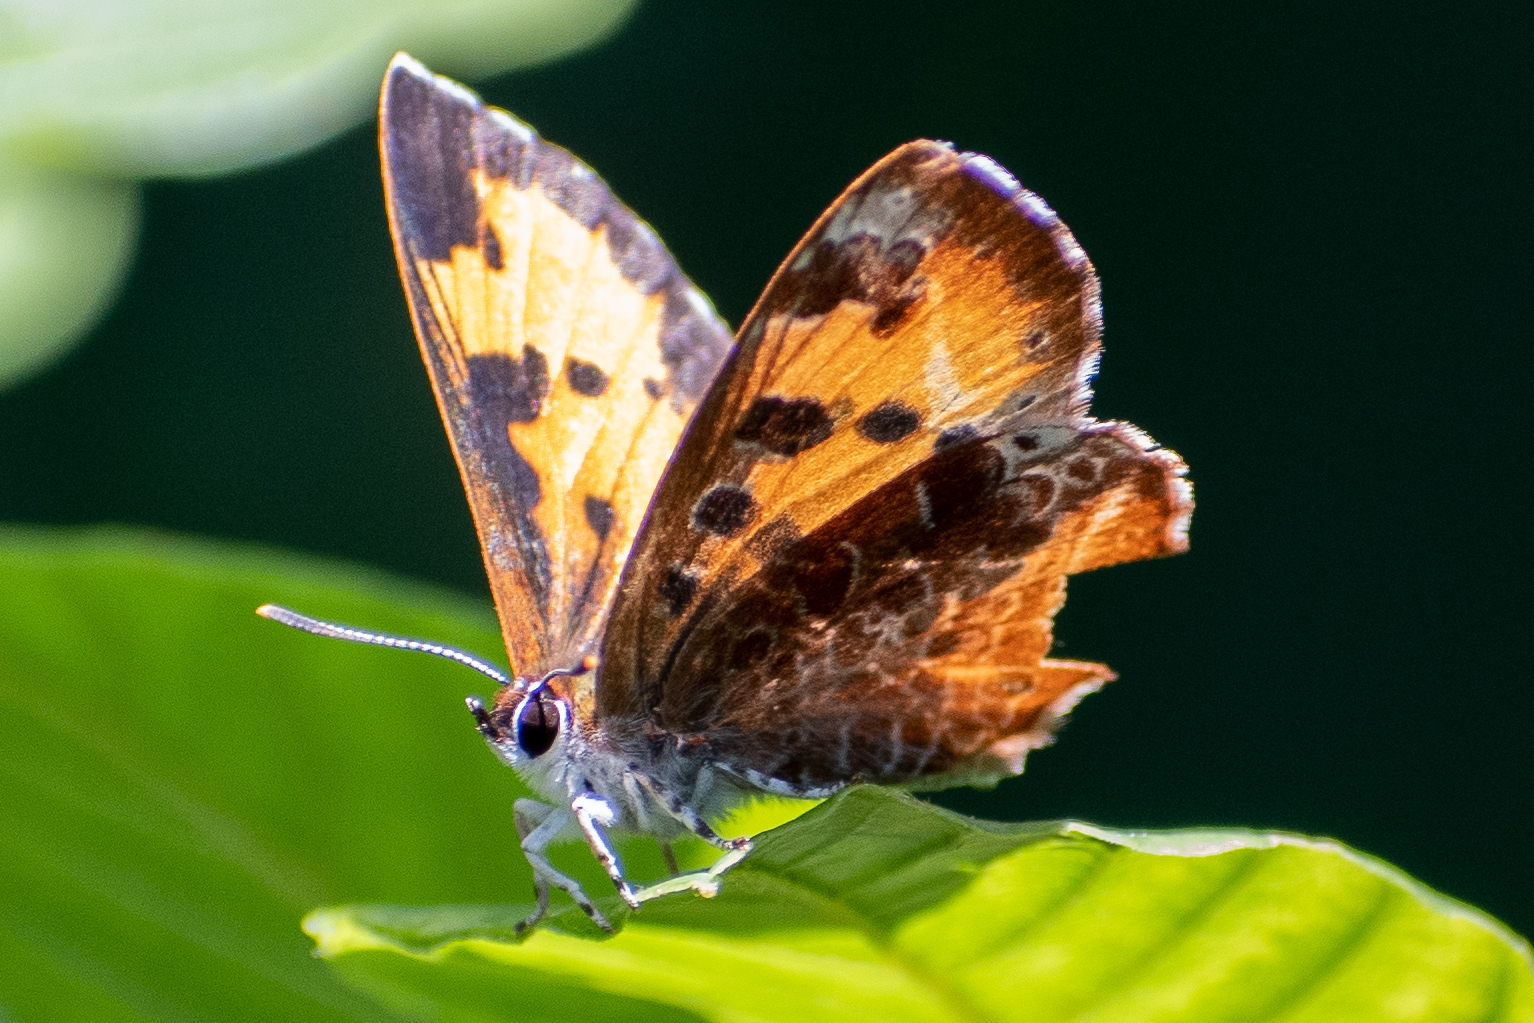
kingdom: Animalia
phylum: Arthropoda
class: Insecta
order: Lepidoptera
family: Lycaenidae
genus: Feniseca
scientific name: Feniseca tarquinius
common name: Harvester
